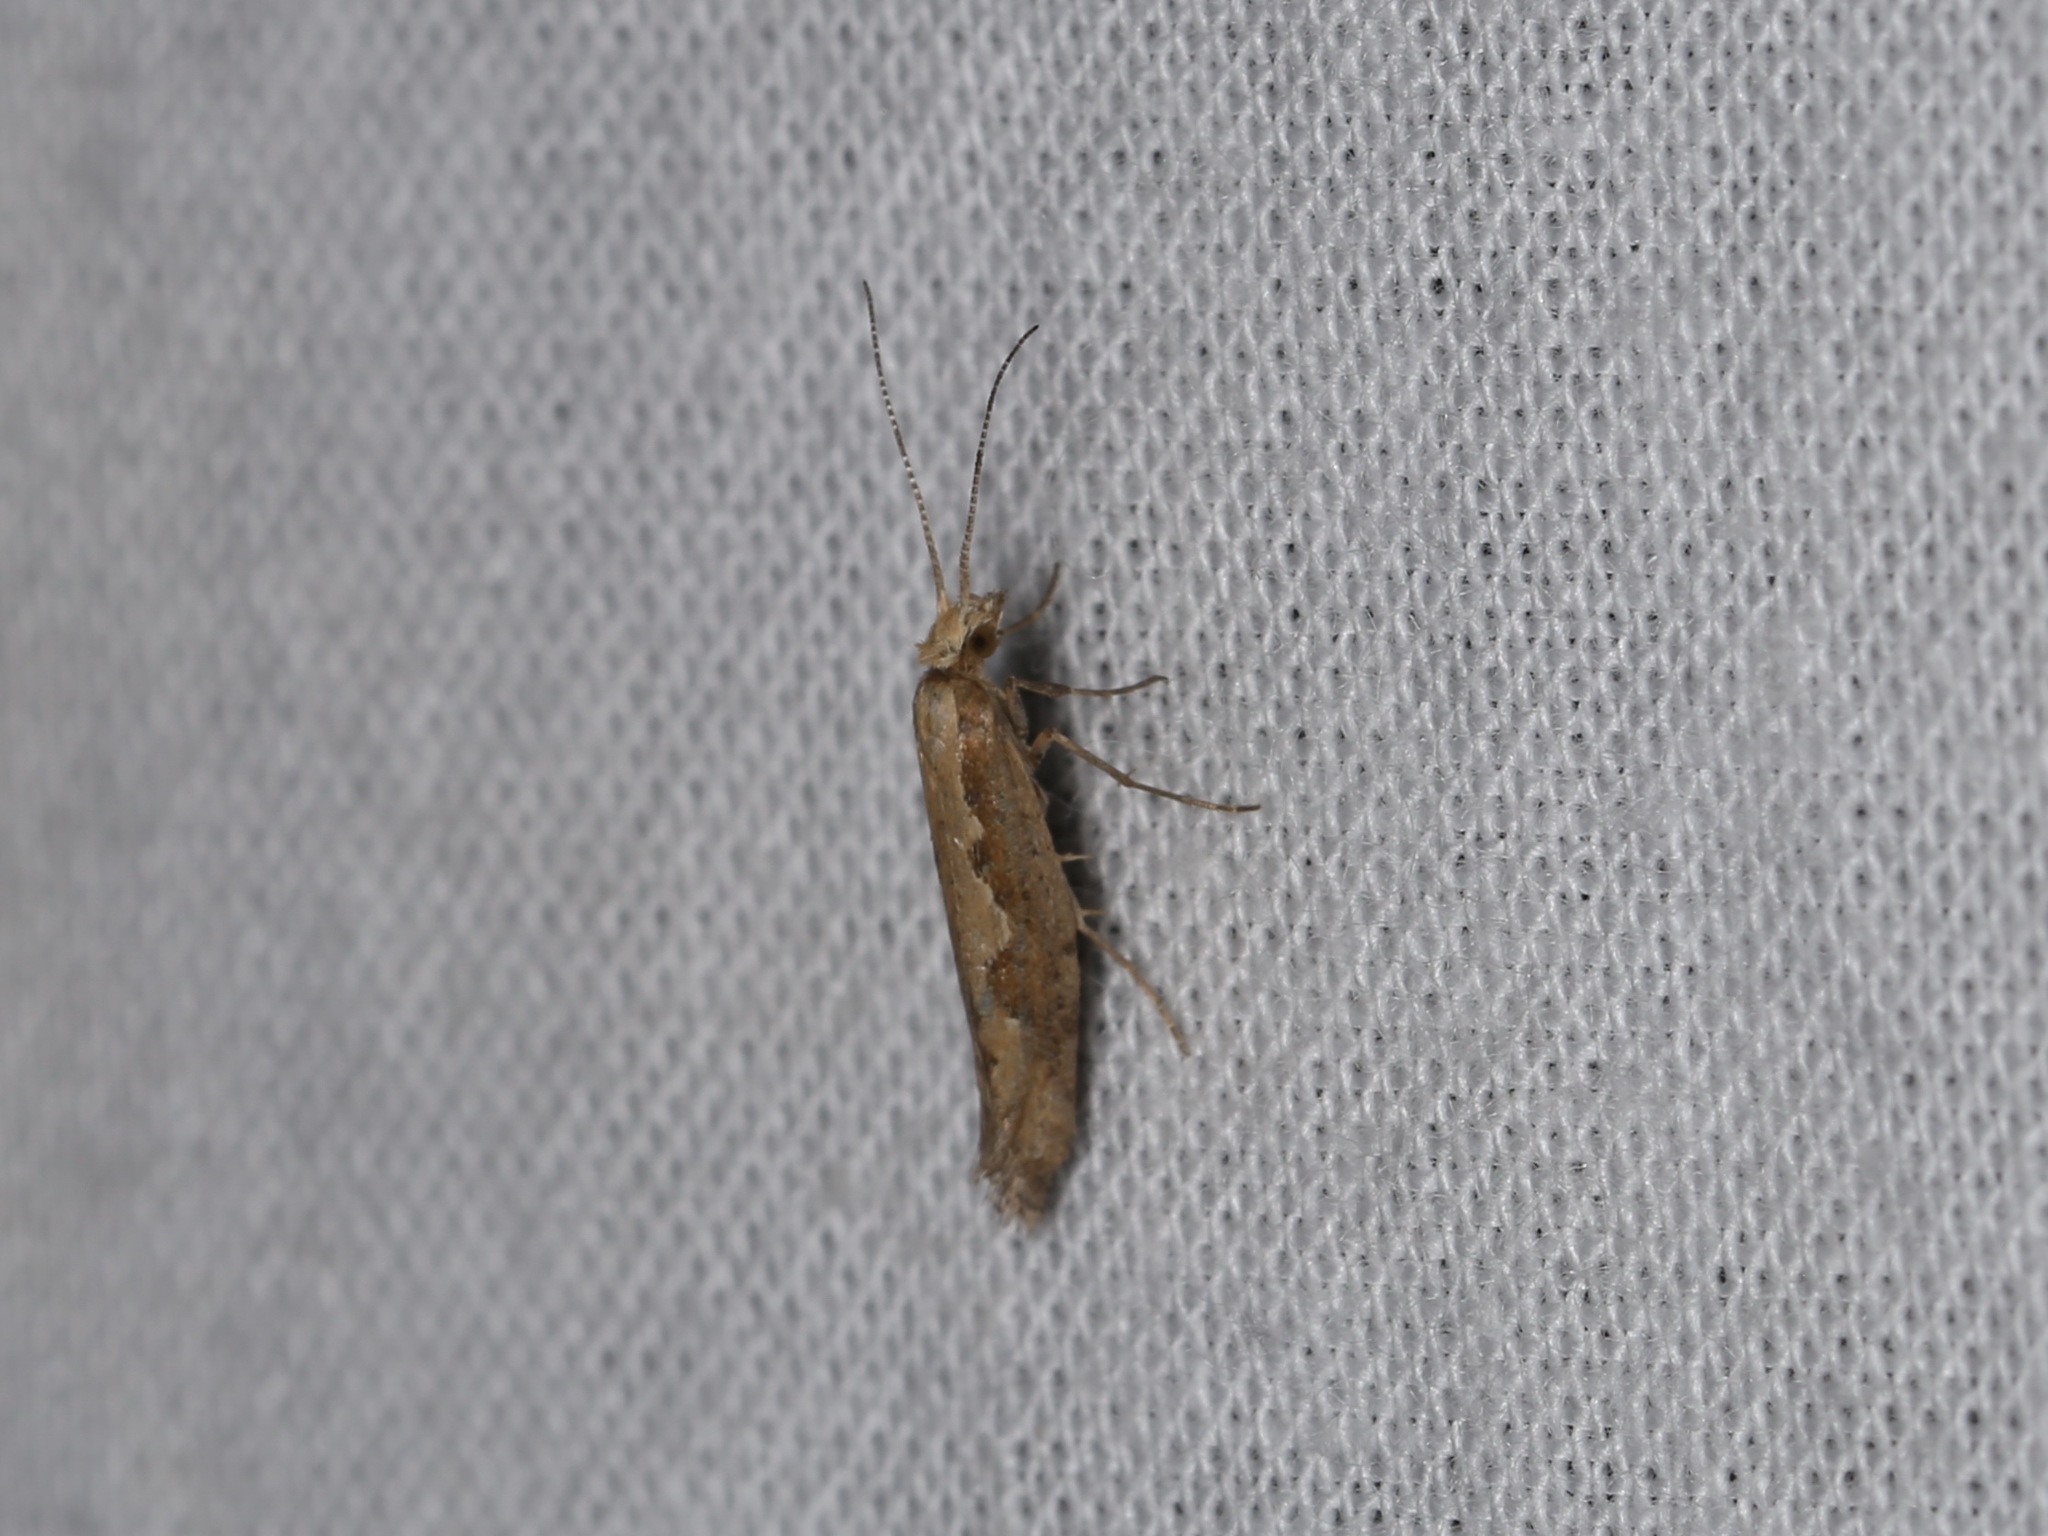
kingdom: Animalia
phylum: Arthropoda
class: Insecta
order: Lepidoptera
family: Plutellidae
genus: Plutella
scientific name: Plutella xylostella
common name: Diamond-back moth
